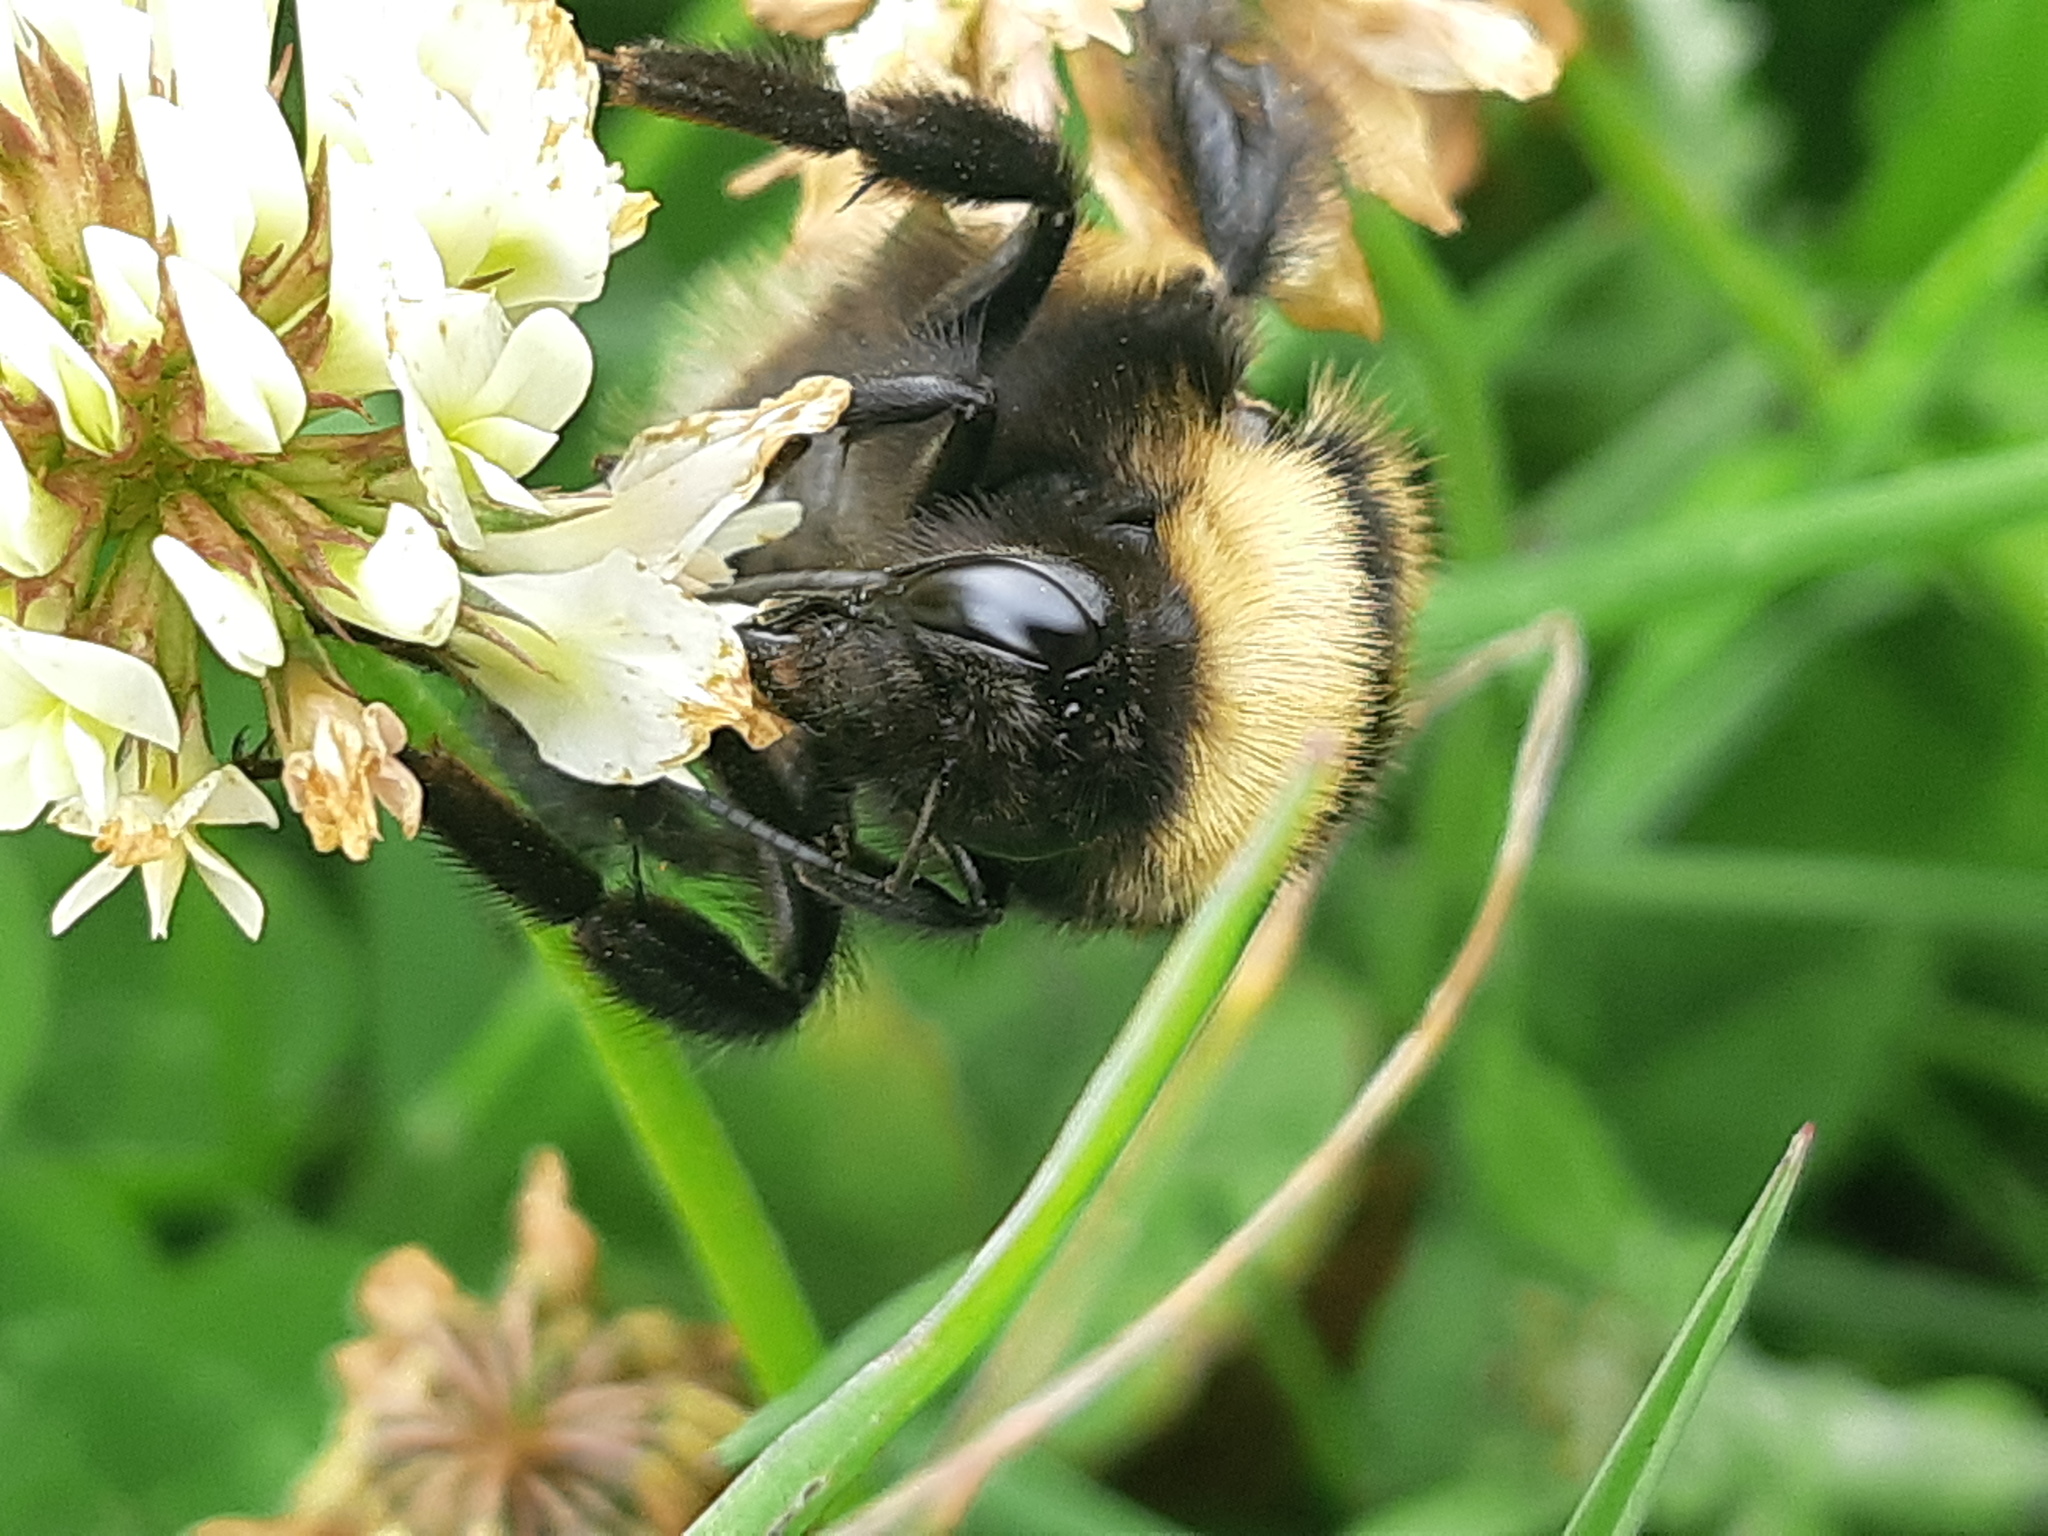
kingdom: Animalia
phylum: Arthropoda
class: Insecta
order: Hymenoptera
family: Apidae
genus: Bombus
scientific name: Bombus robustus
